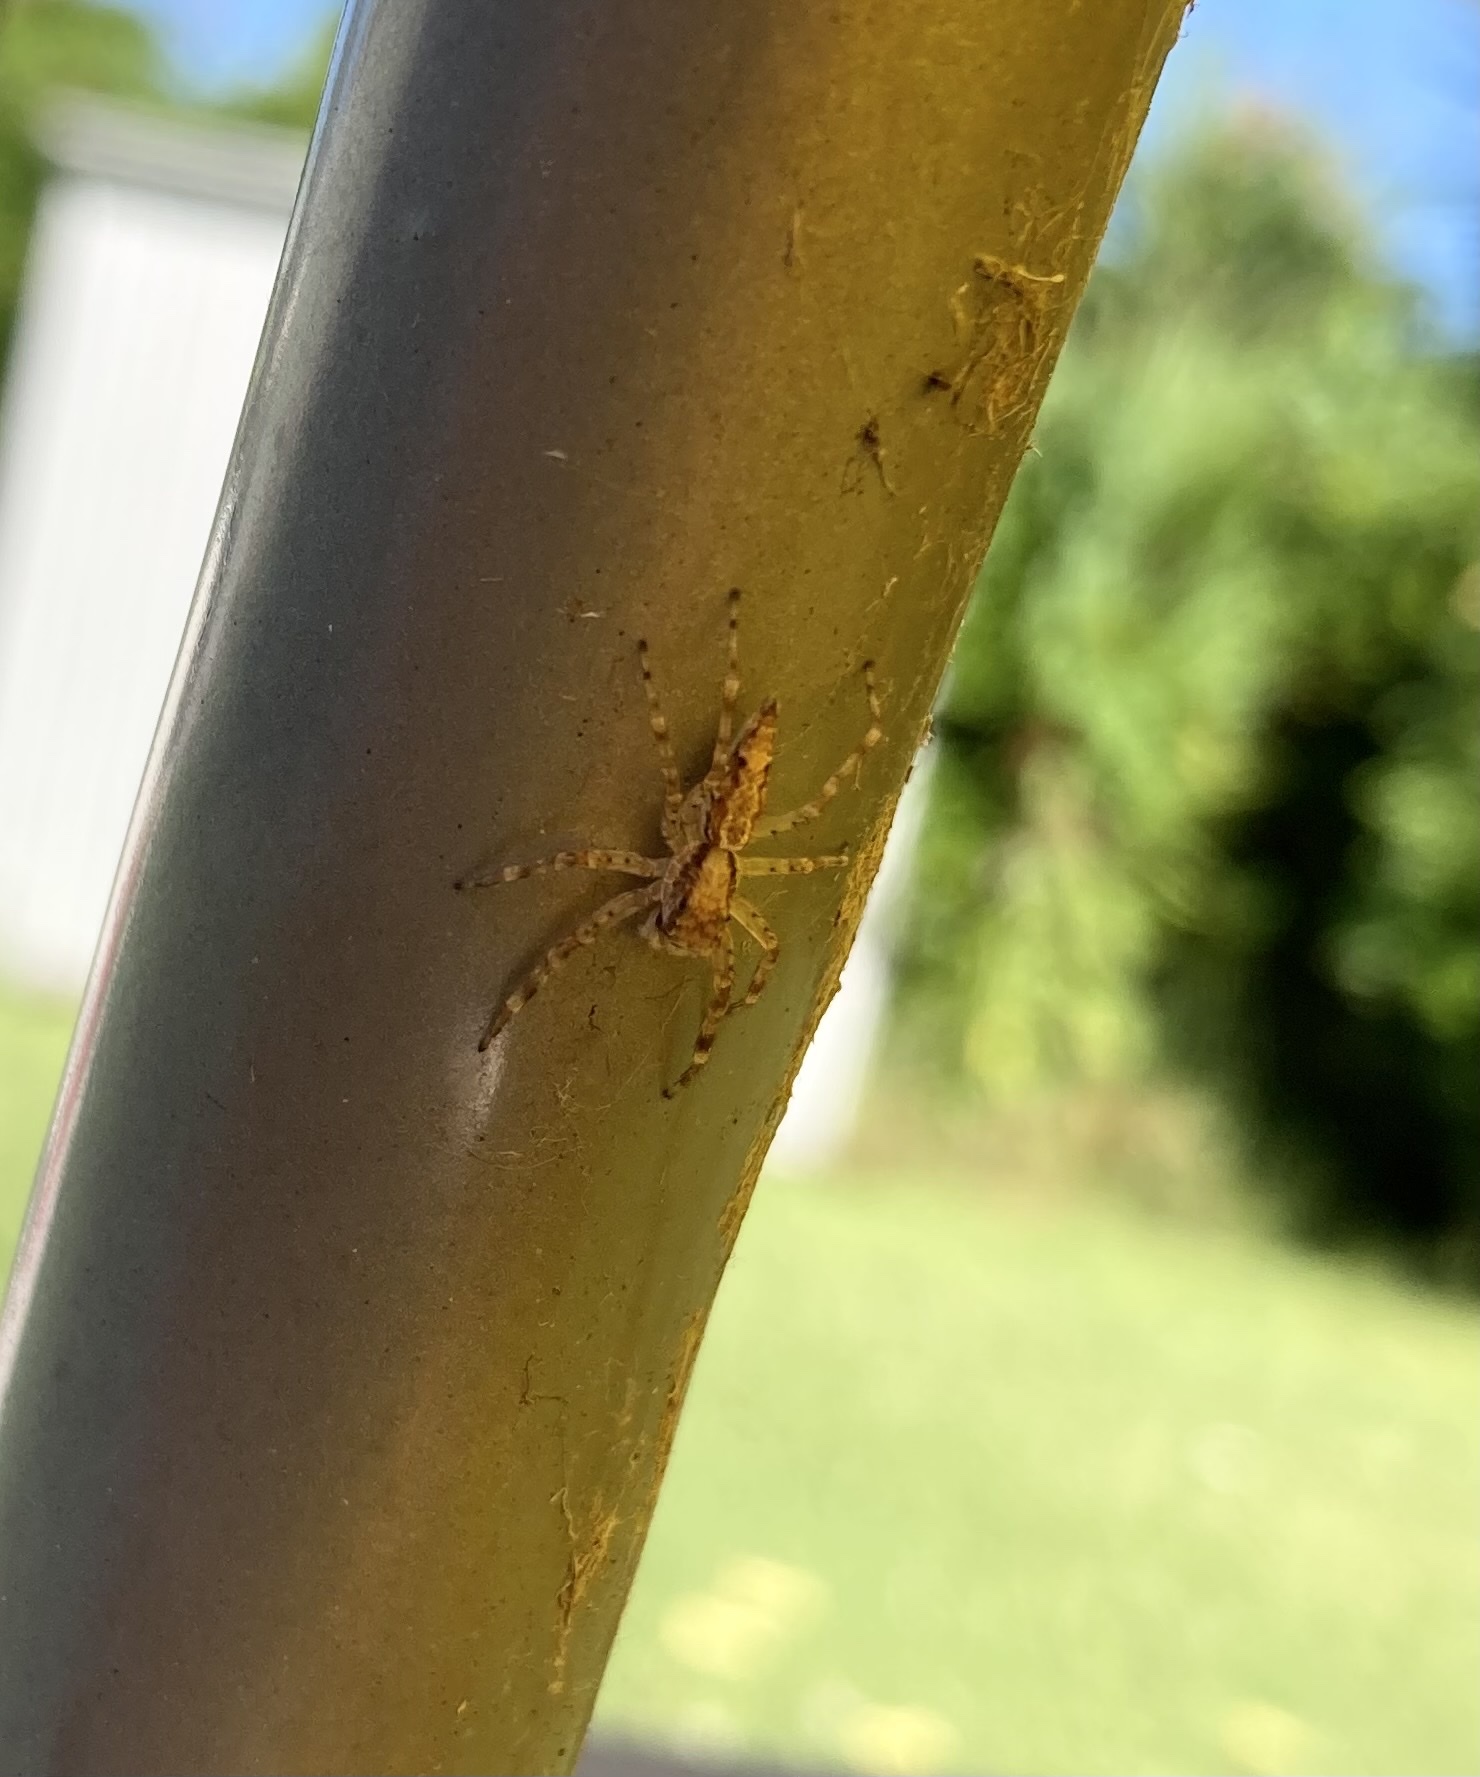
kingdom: Animalia
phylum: Arthropoda
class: Arachnida
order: Araneae
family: Salticidae
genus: Helpis
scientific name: Helpis minitabunda
